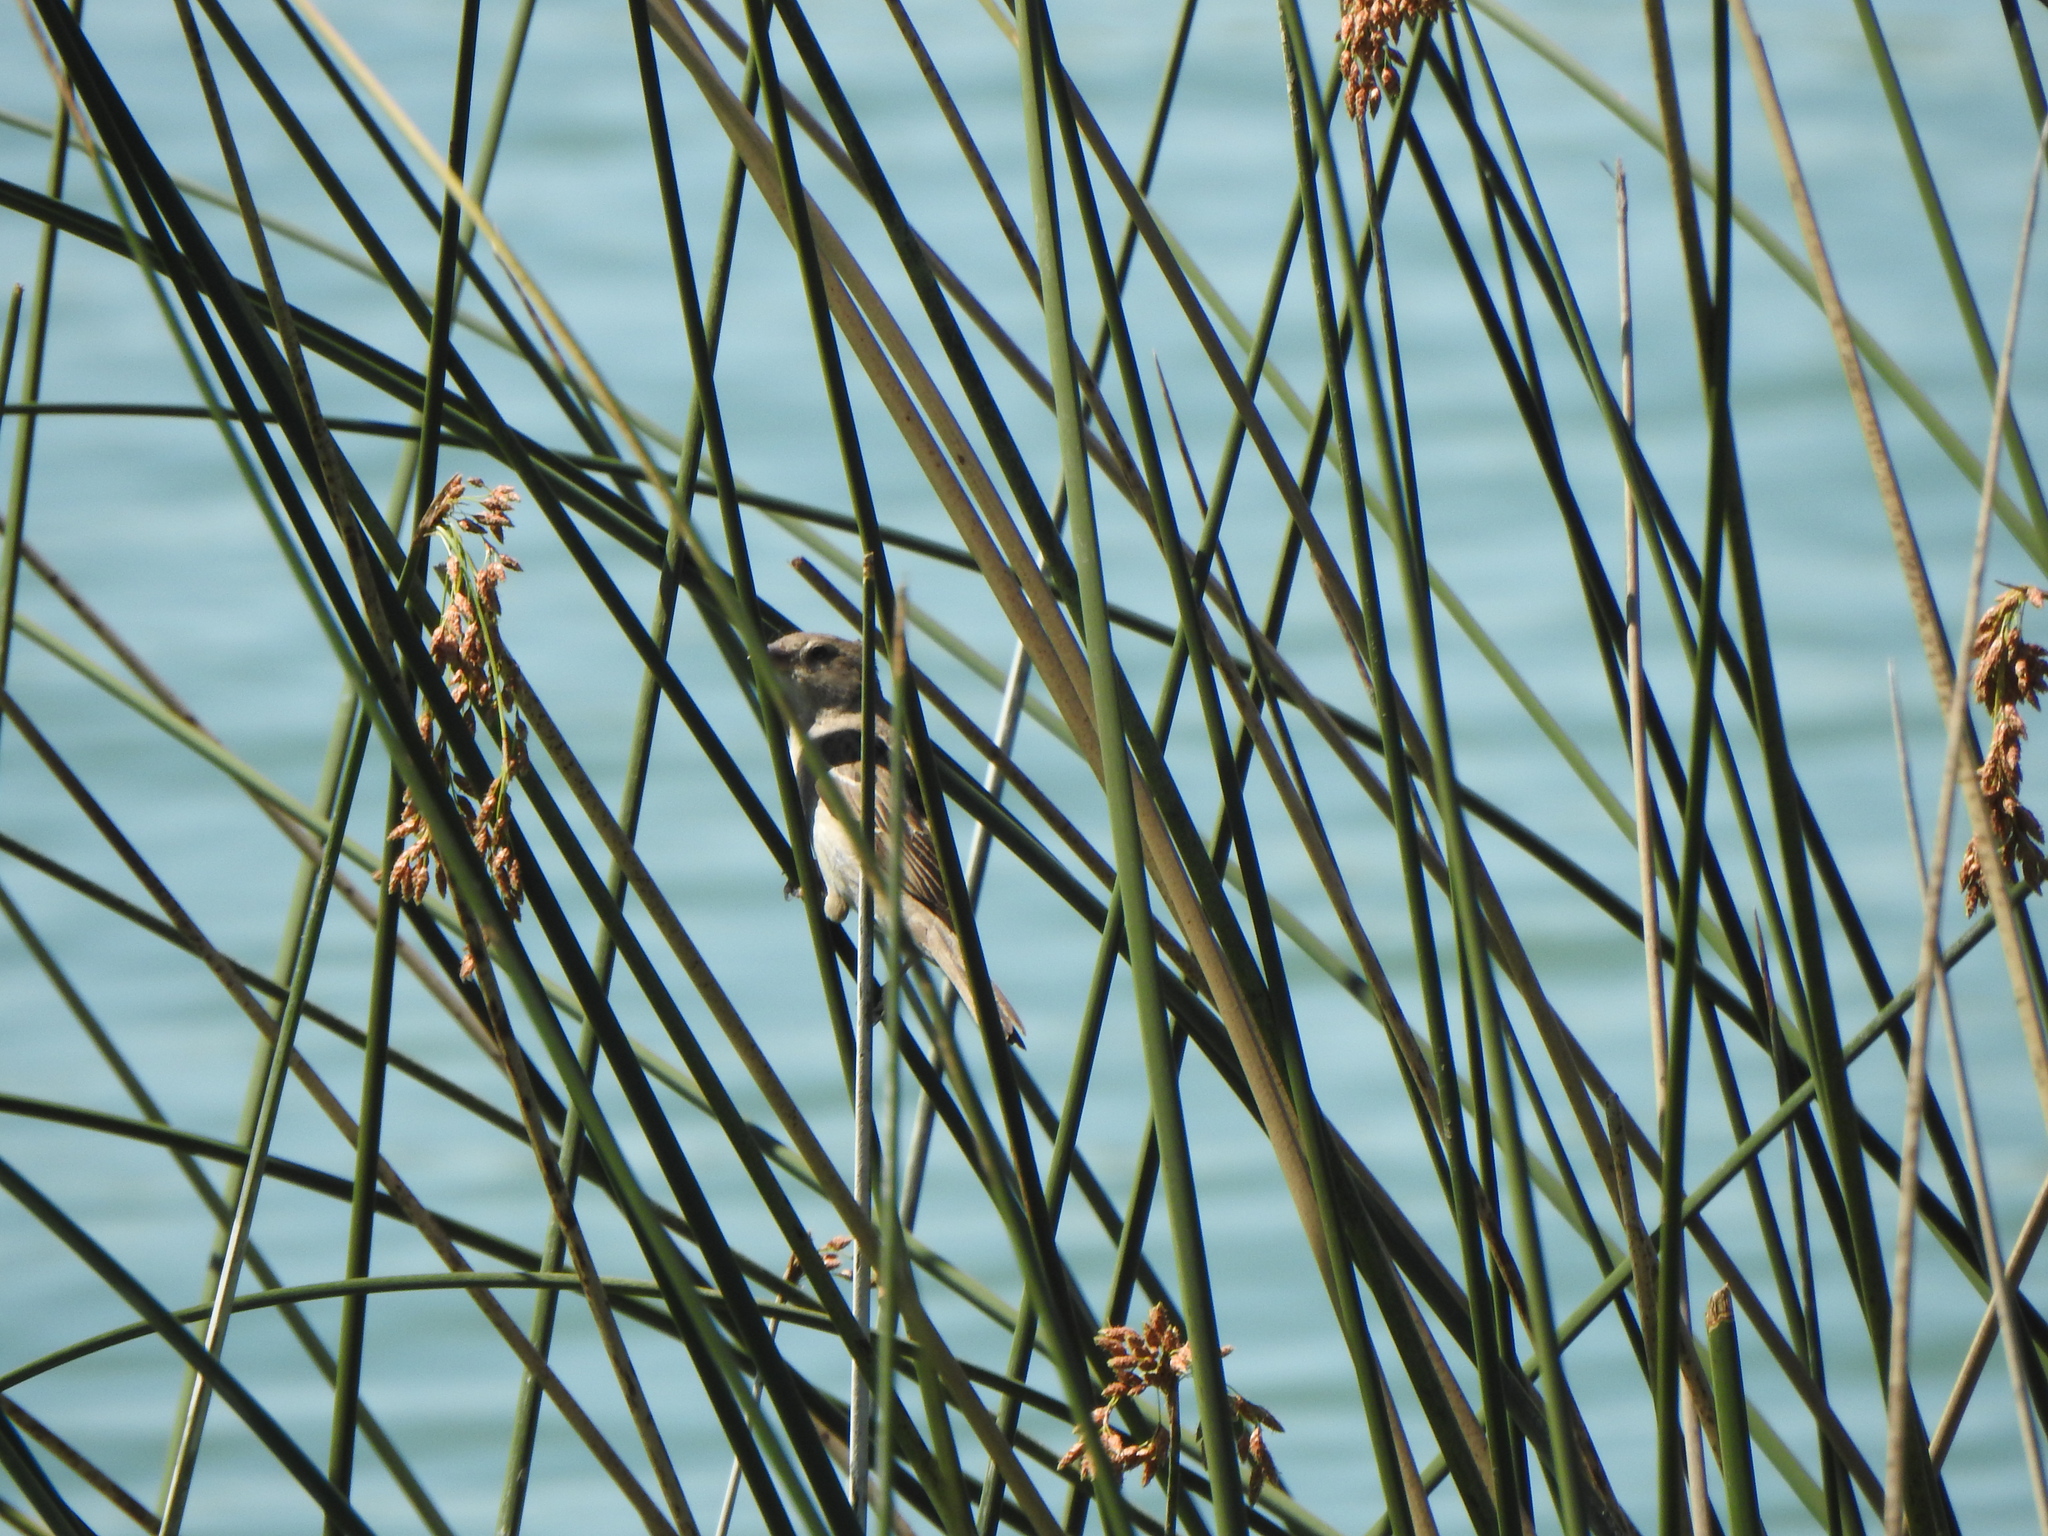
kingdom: Animalia
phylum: Chordata
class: Aves
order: Passeriformes
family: Passeridae
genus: Passer
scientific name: Passer domesticus
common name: House sparrow
